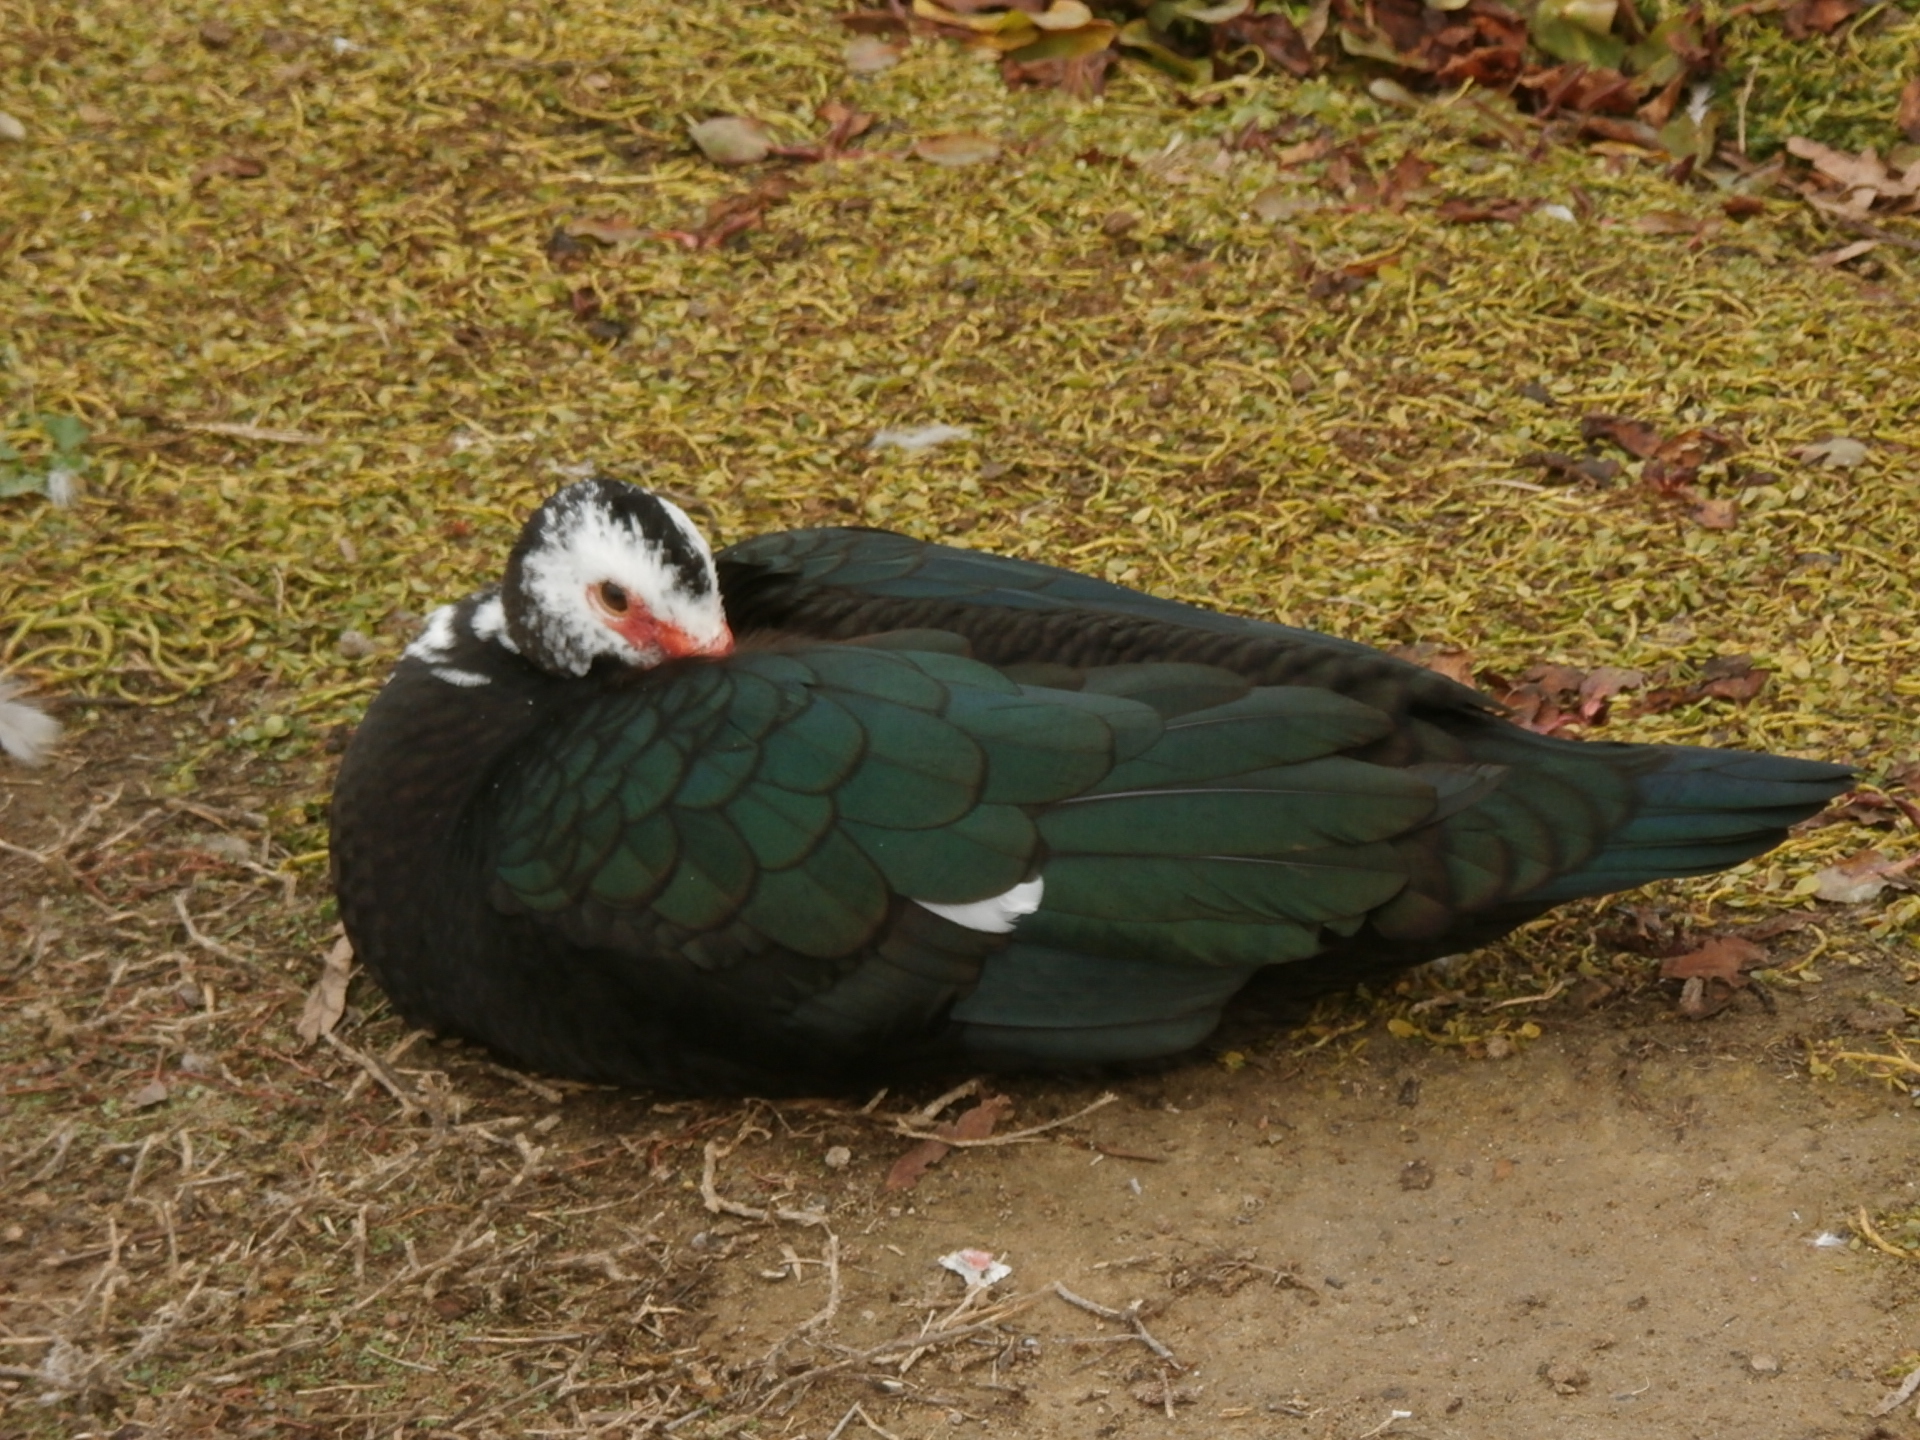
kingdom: Animalia
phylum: Chordata
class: Aves
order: Anseriformes
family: Anatidae
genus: Cairina
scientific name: Cairina moschata
